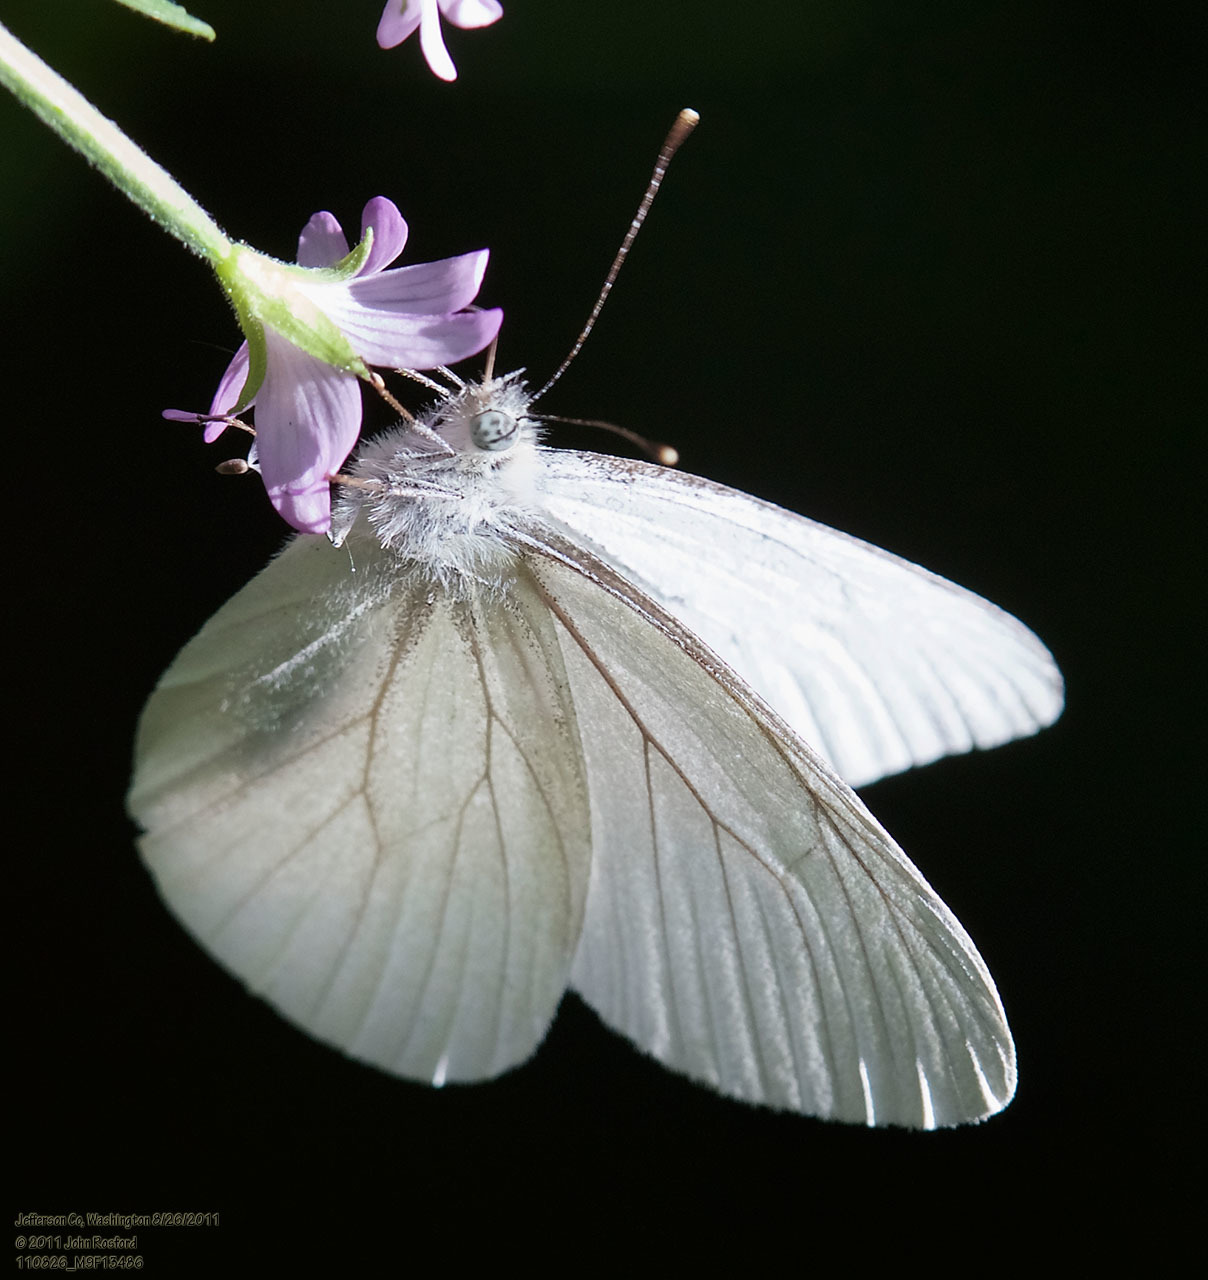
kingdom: Animalia
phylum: Arthropoda
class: Insecta
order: Lepidoptera
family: Pieridae
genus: Pieris
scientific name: Pieris marginalis
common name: Margined white
